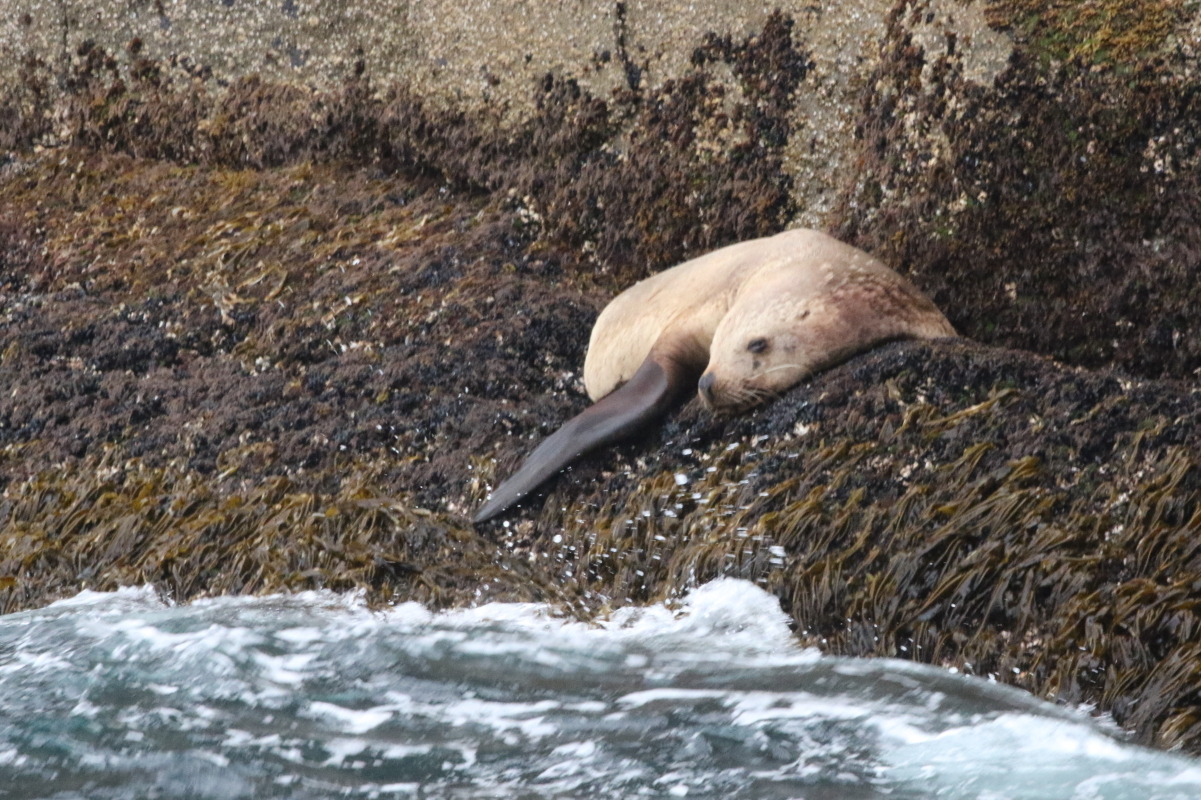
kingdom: Animalia
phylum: Chordata
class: Mammalia
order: Carnivora
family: Otariidae
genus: Eumetopias
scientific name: Eumetopias jubatus
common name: Steller sea lion
